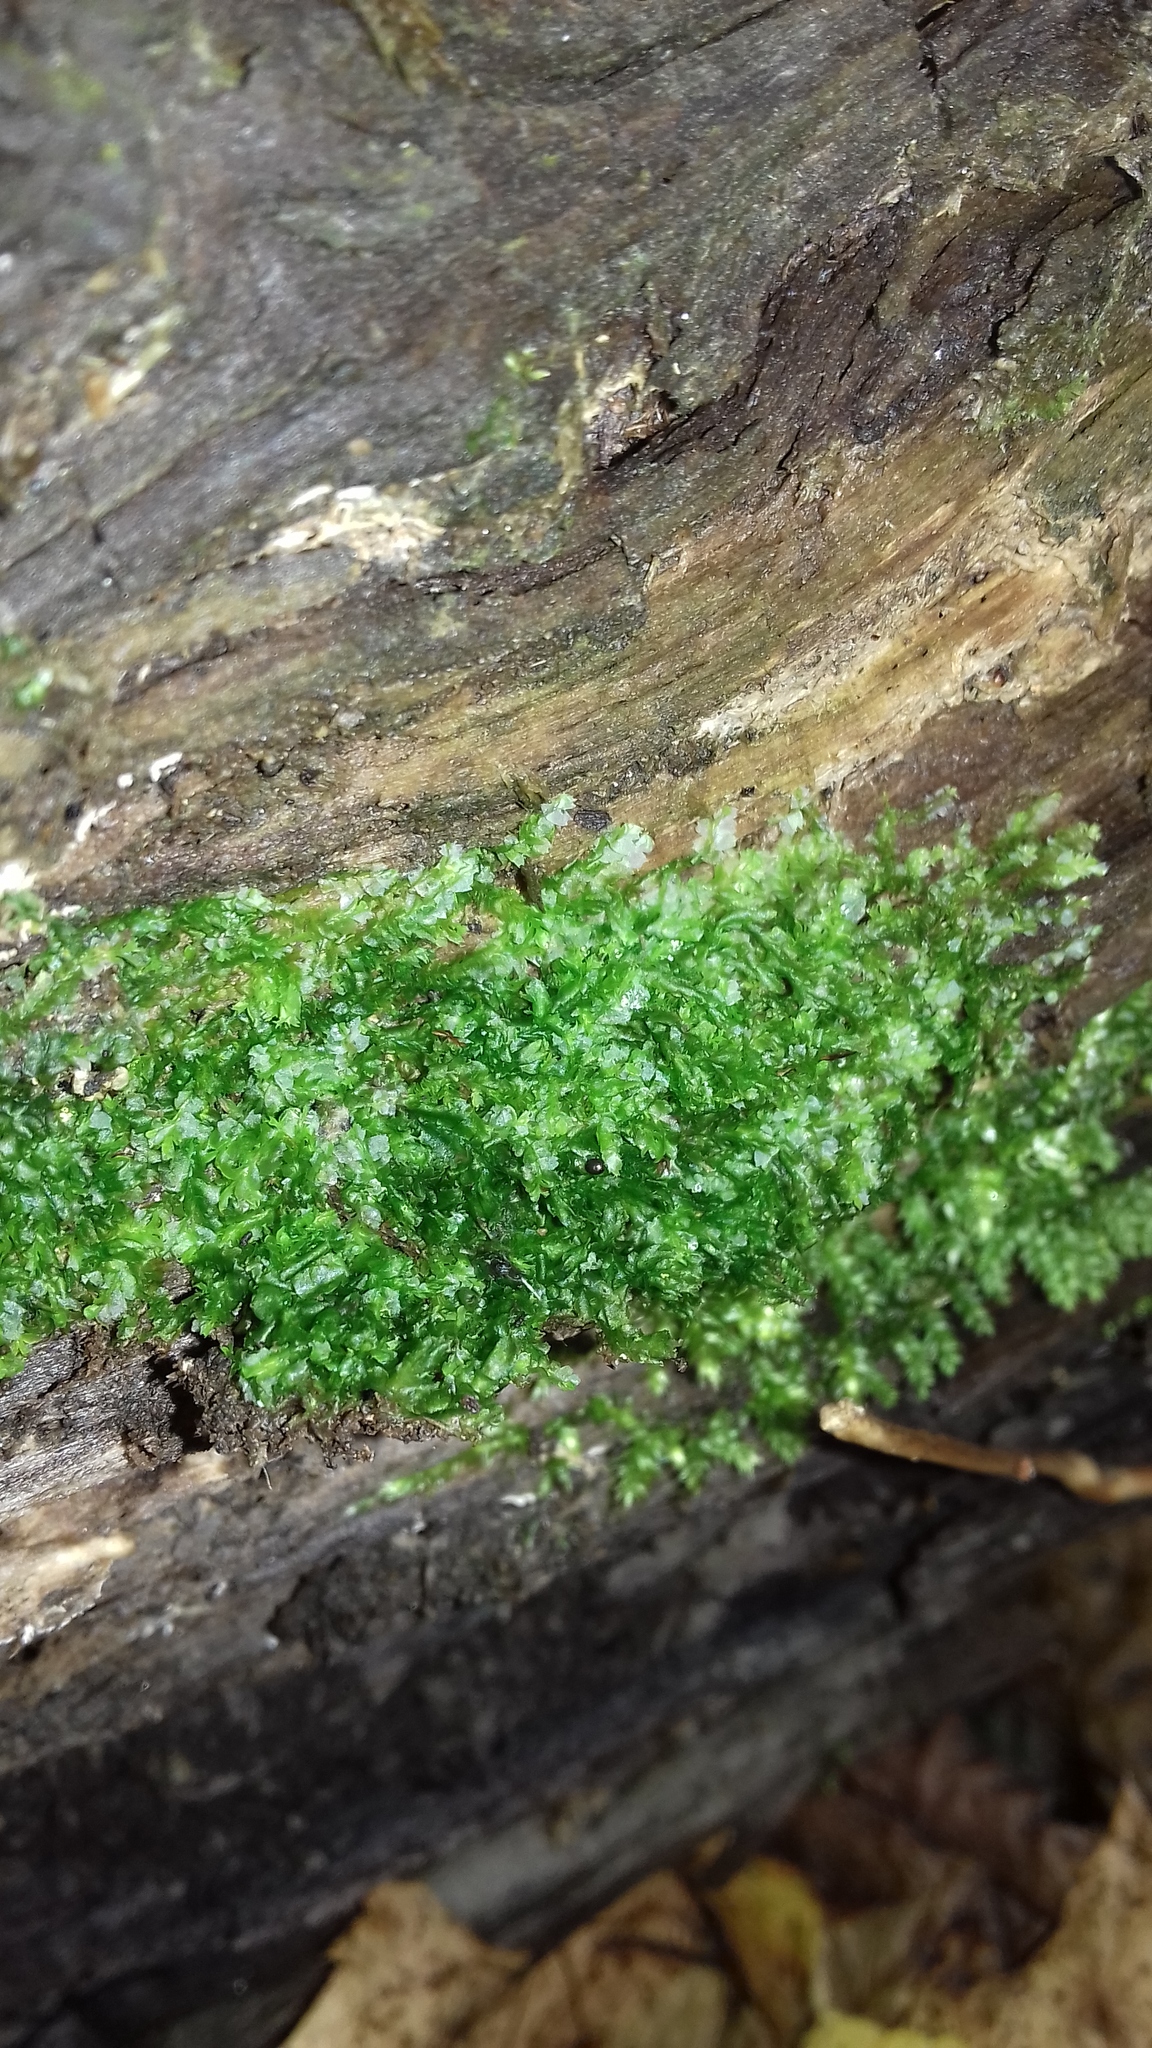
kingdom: Plantae
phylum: Marchantiophyta
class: Jungermanniopsida
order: Jungermanniales
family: Lophocoleaceae
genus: Lophocolea
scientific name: Lophocolea heterophylla
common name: Variable-leaved crestwort
